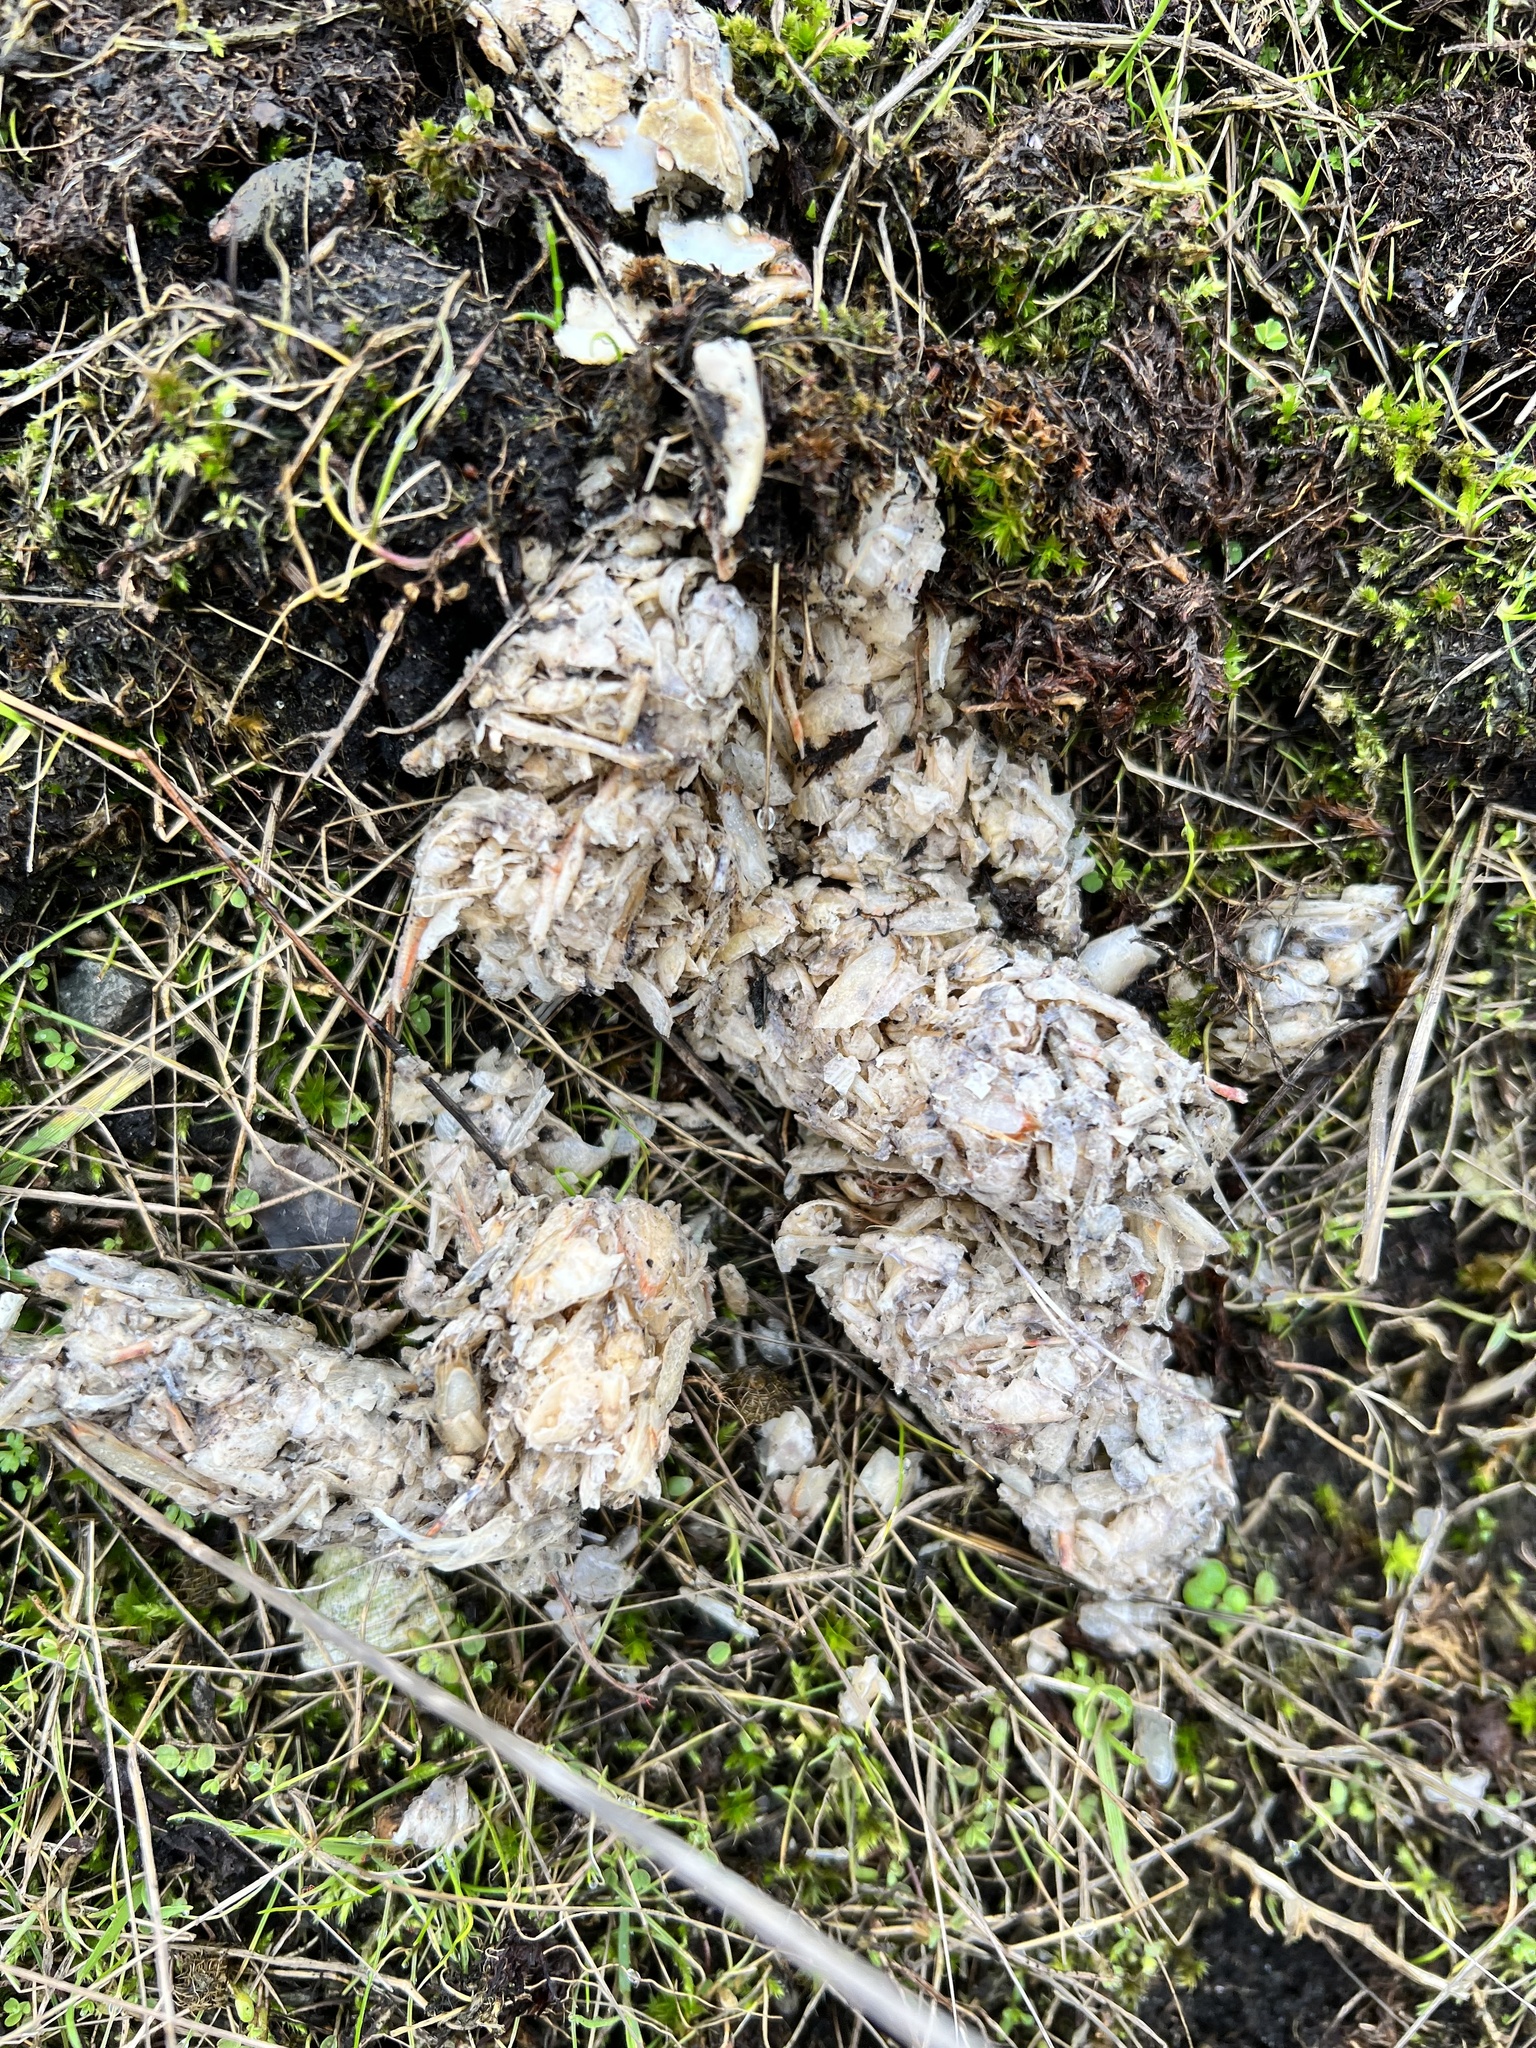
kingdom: Animalia
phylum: Chordata
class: Mammalia
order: Carnivora
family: Mustelidae
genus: Lontra
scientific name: Lontra canadensis
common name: North american river otter
